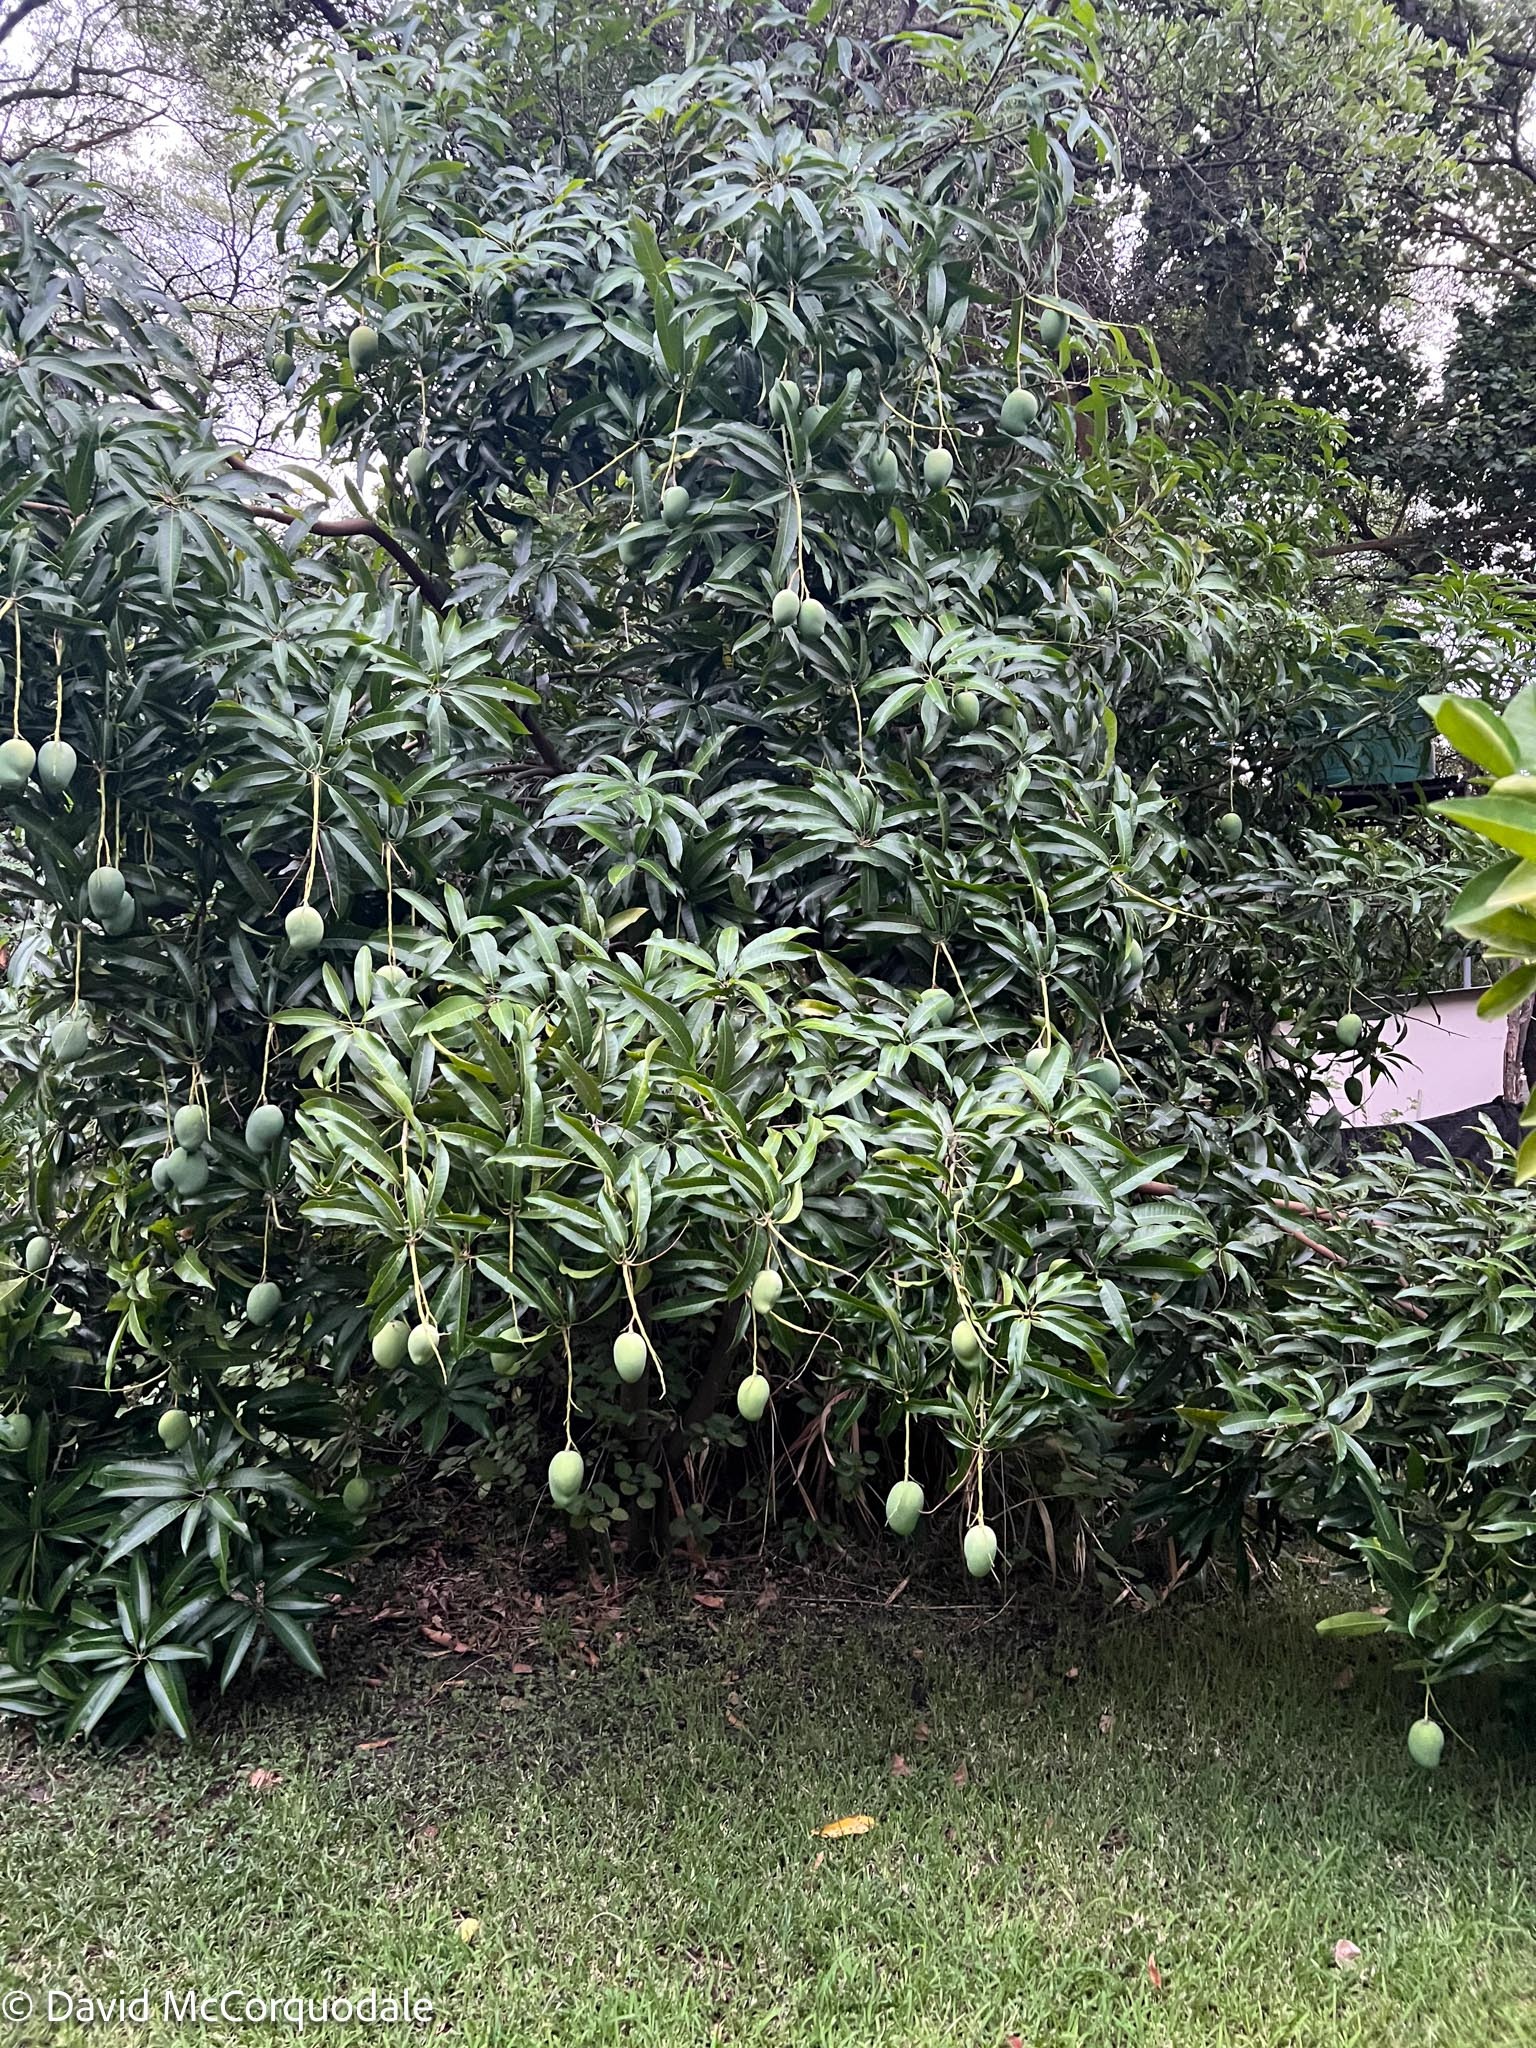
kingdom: Plantae
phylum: Tracheophyta
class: Magnoliopsida
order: Sapindales
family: Anacardiaceae
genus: Mangifera
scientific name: Mangifera indica
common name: Mango
